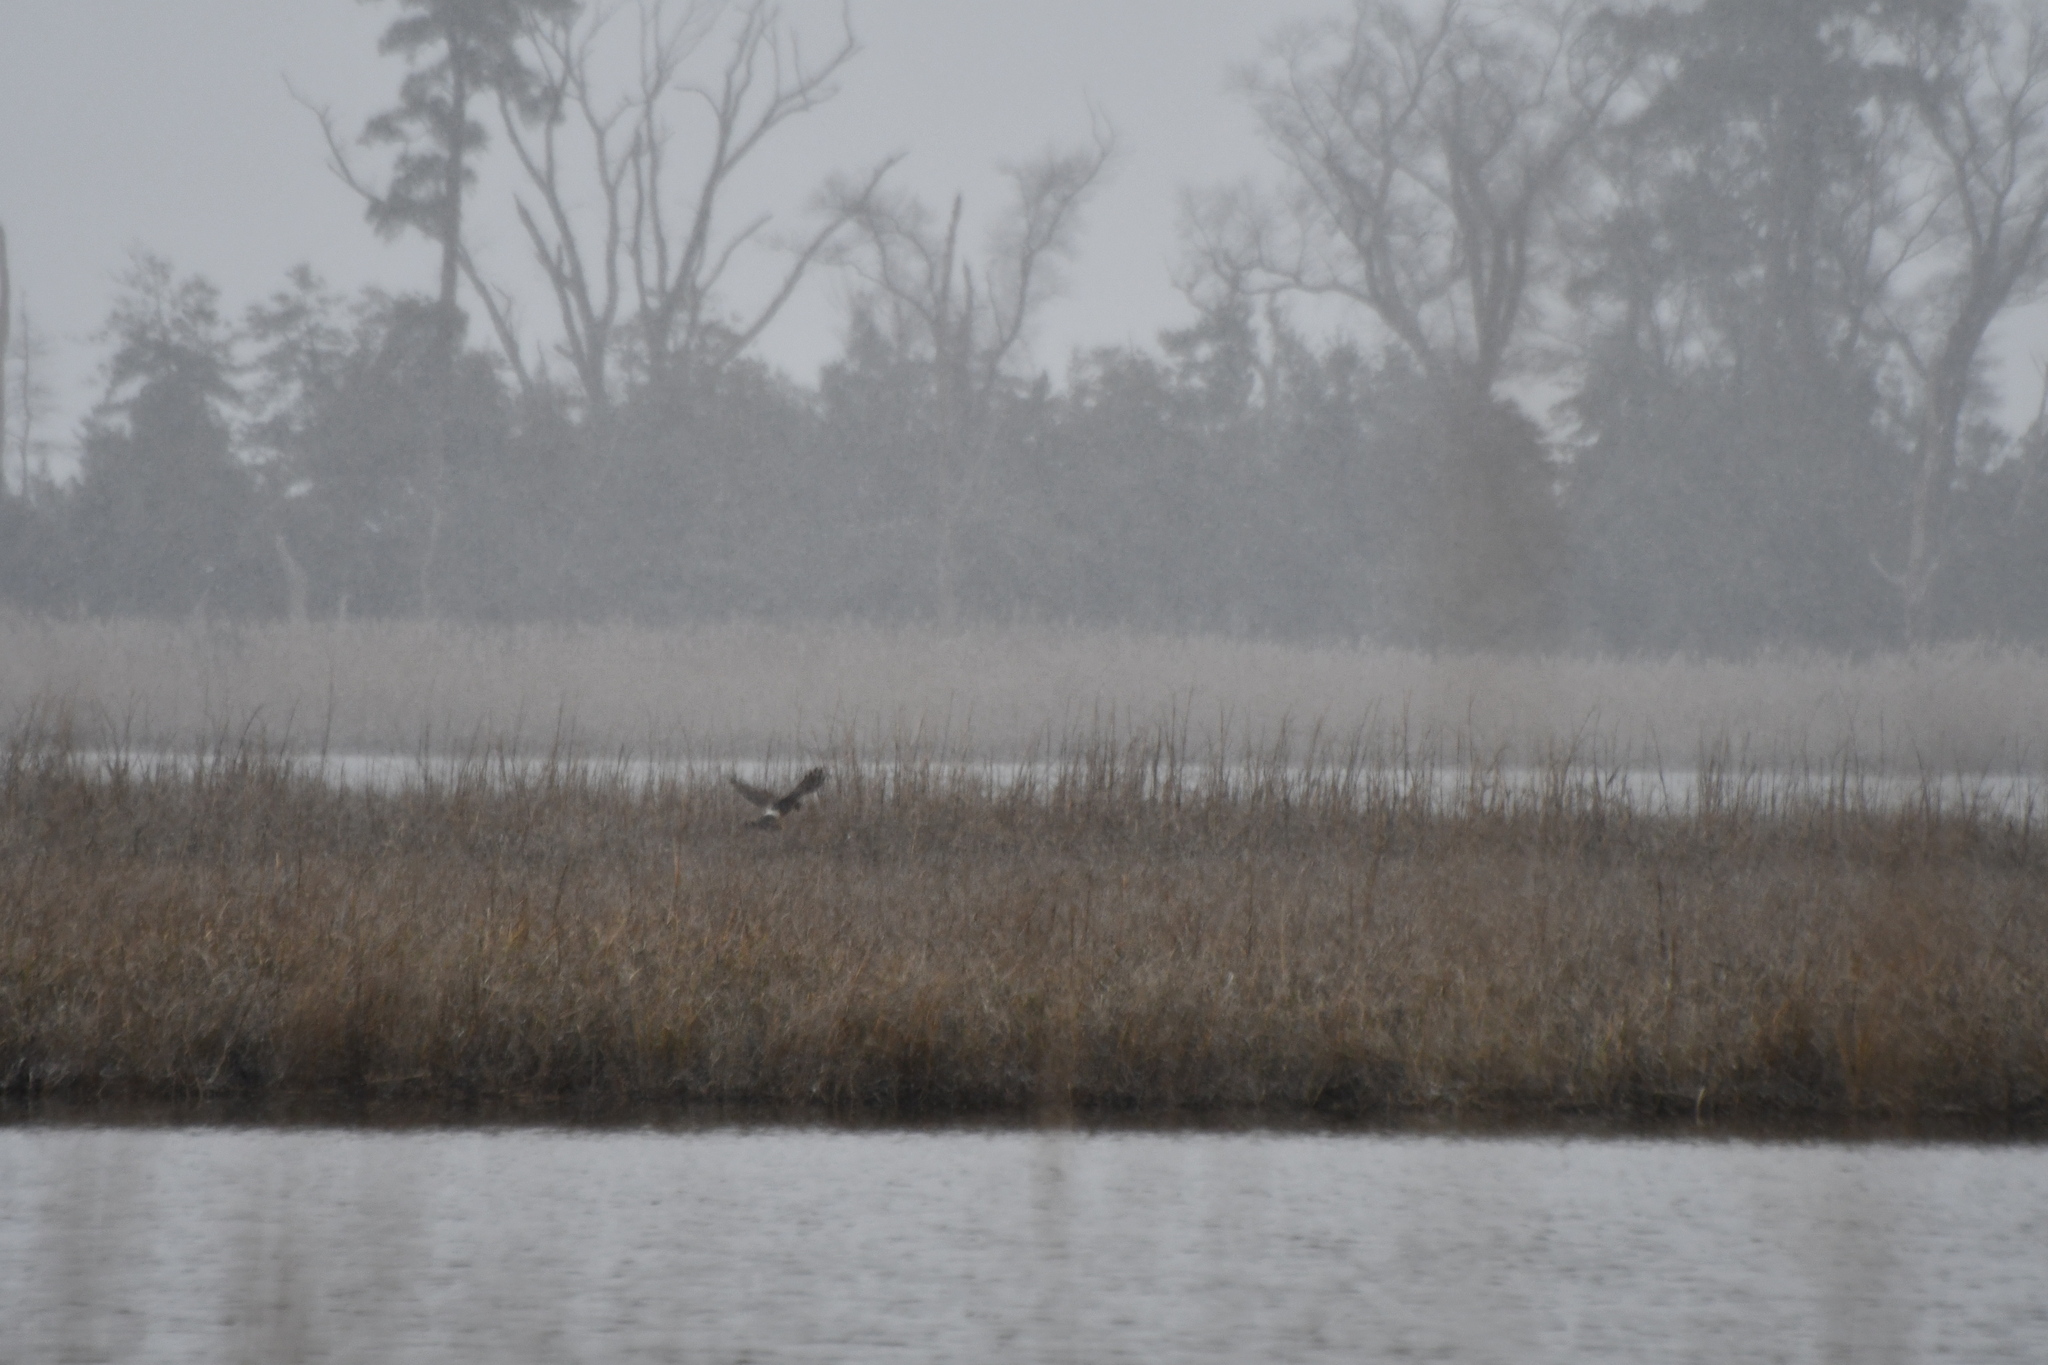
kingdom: Animalia
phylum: Chordata
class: Aves
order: Accipitriformes
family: Accipitridae
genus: Circus
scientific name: Circus cyaneus
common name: Hen harrier
